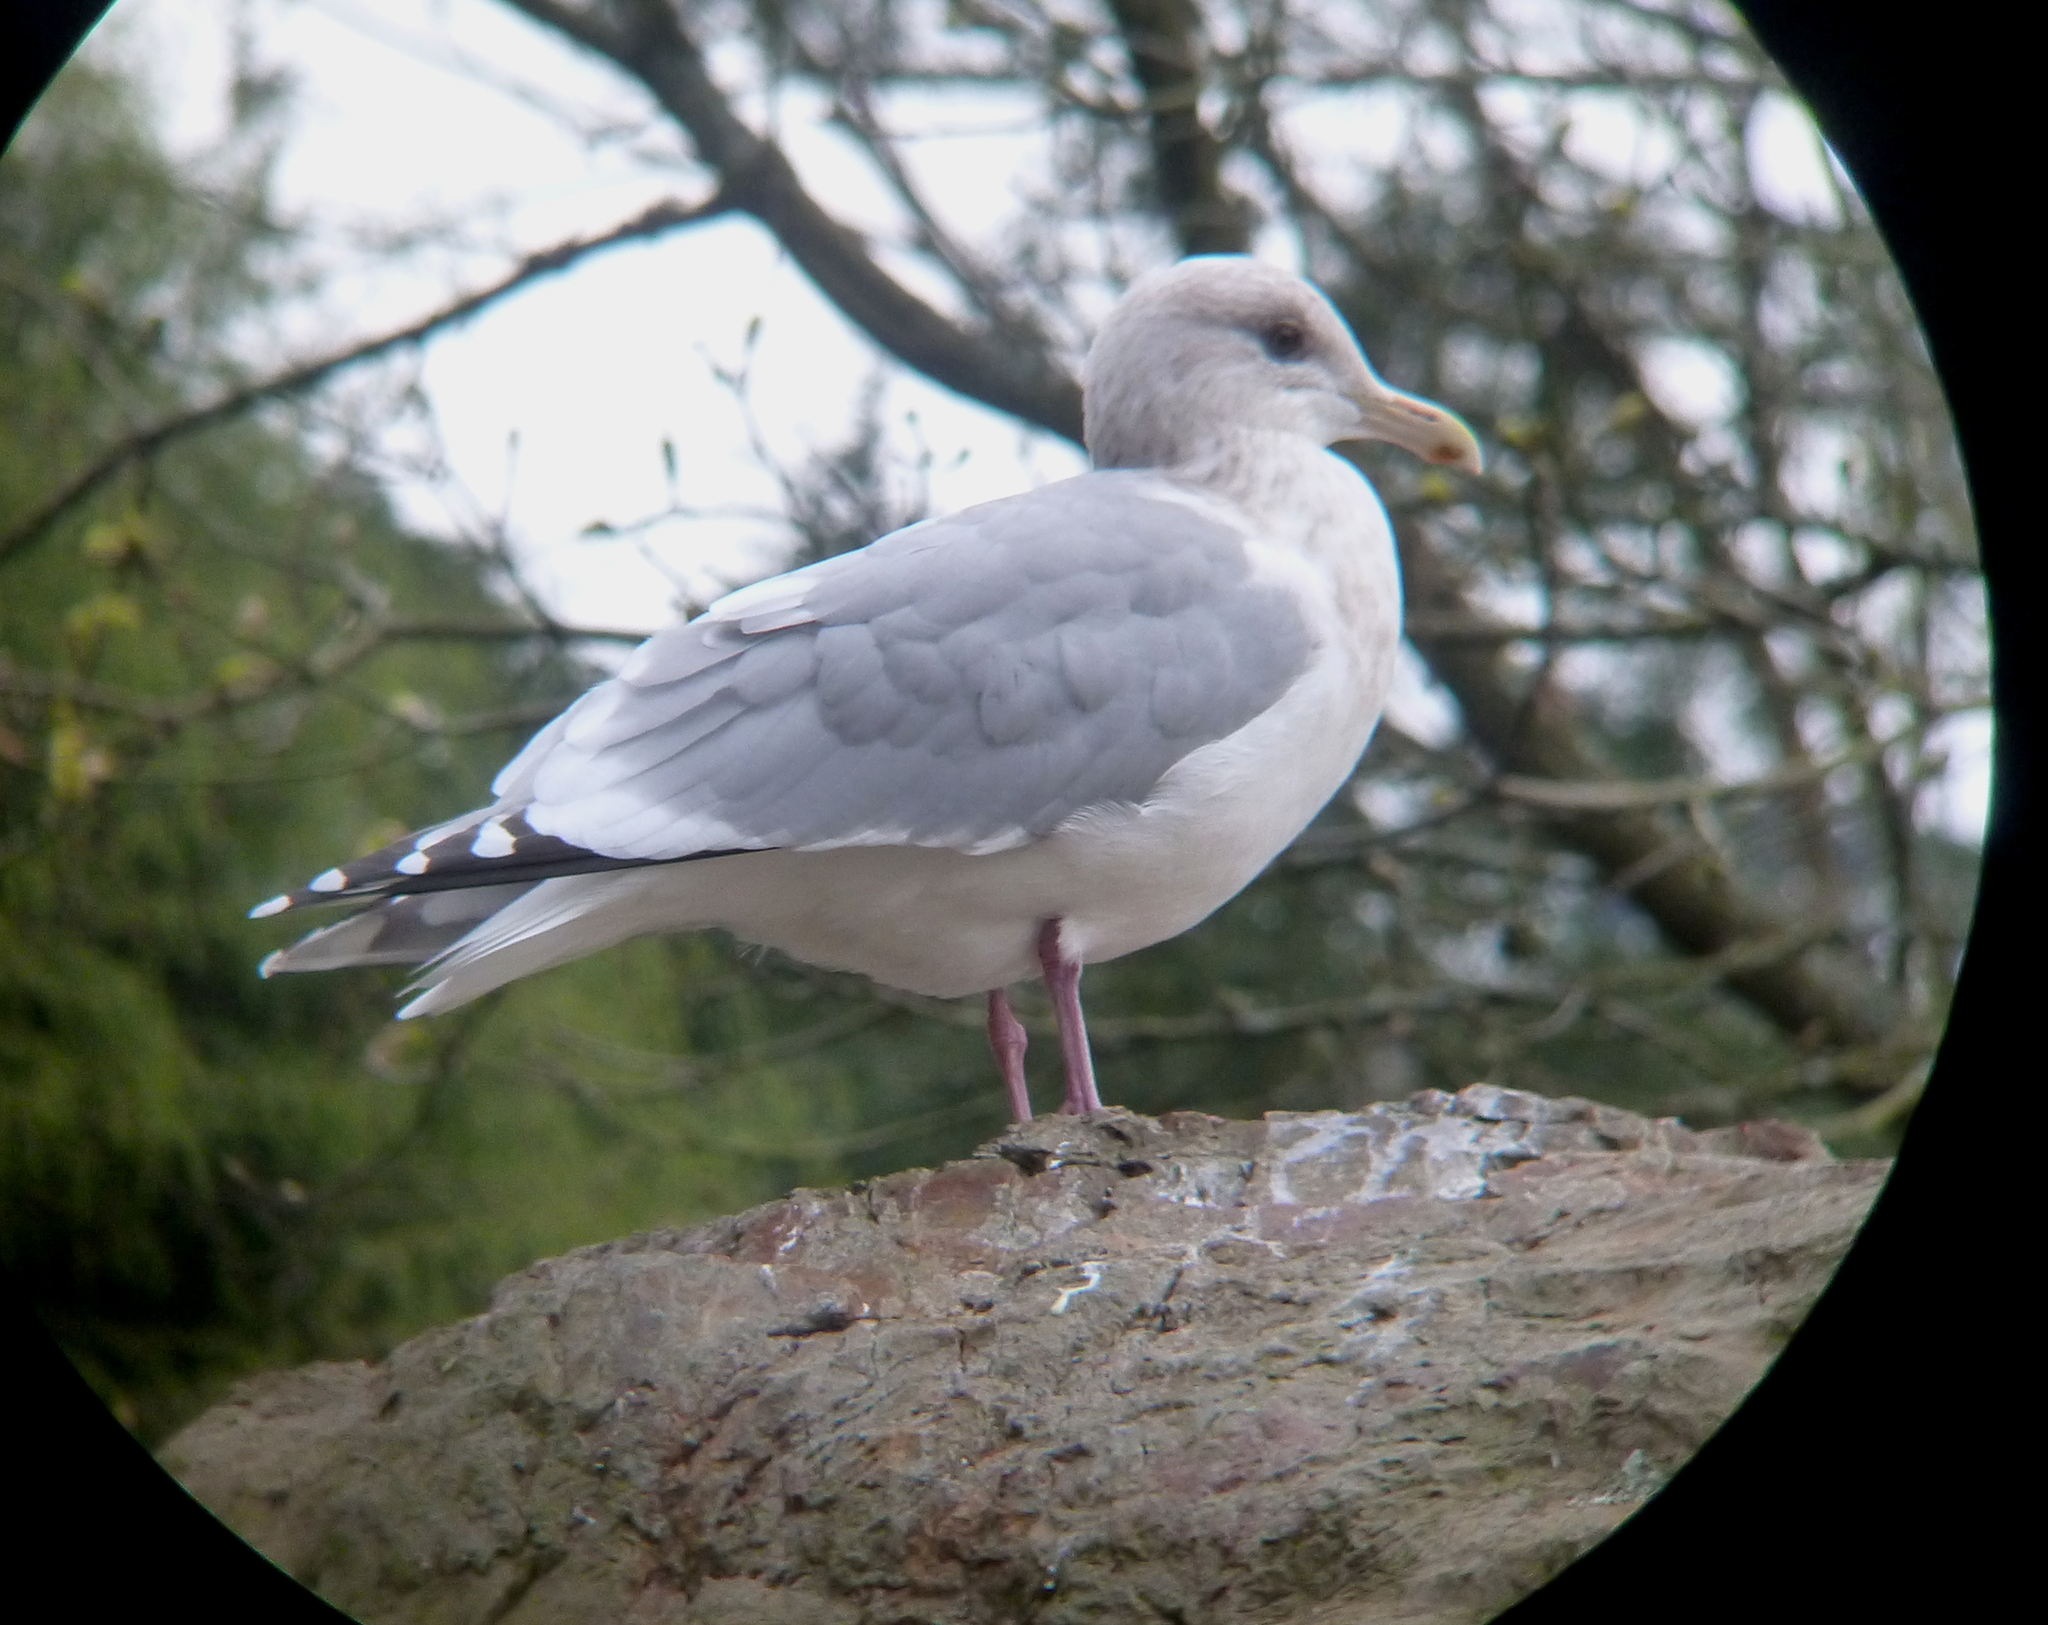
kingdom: Animalia
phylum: Chordata
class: Aves
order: Charadriiformes
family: Laridae
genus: Larus
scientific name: Larus glaucoides
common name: Iceland gull
